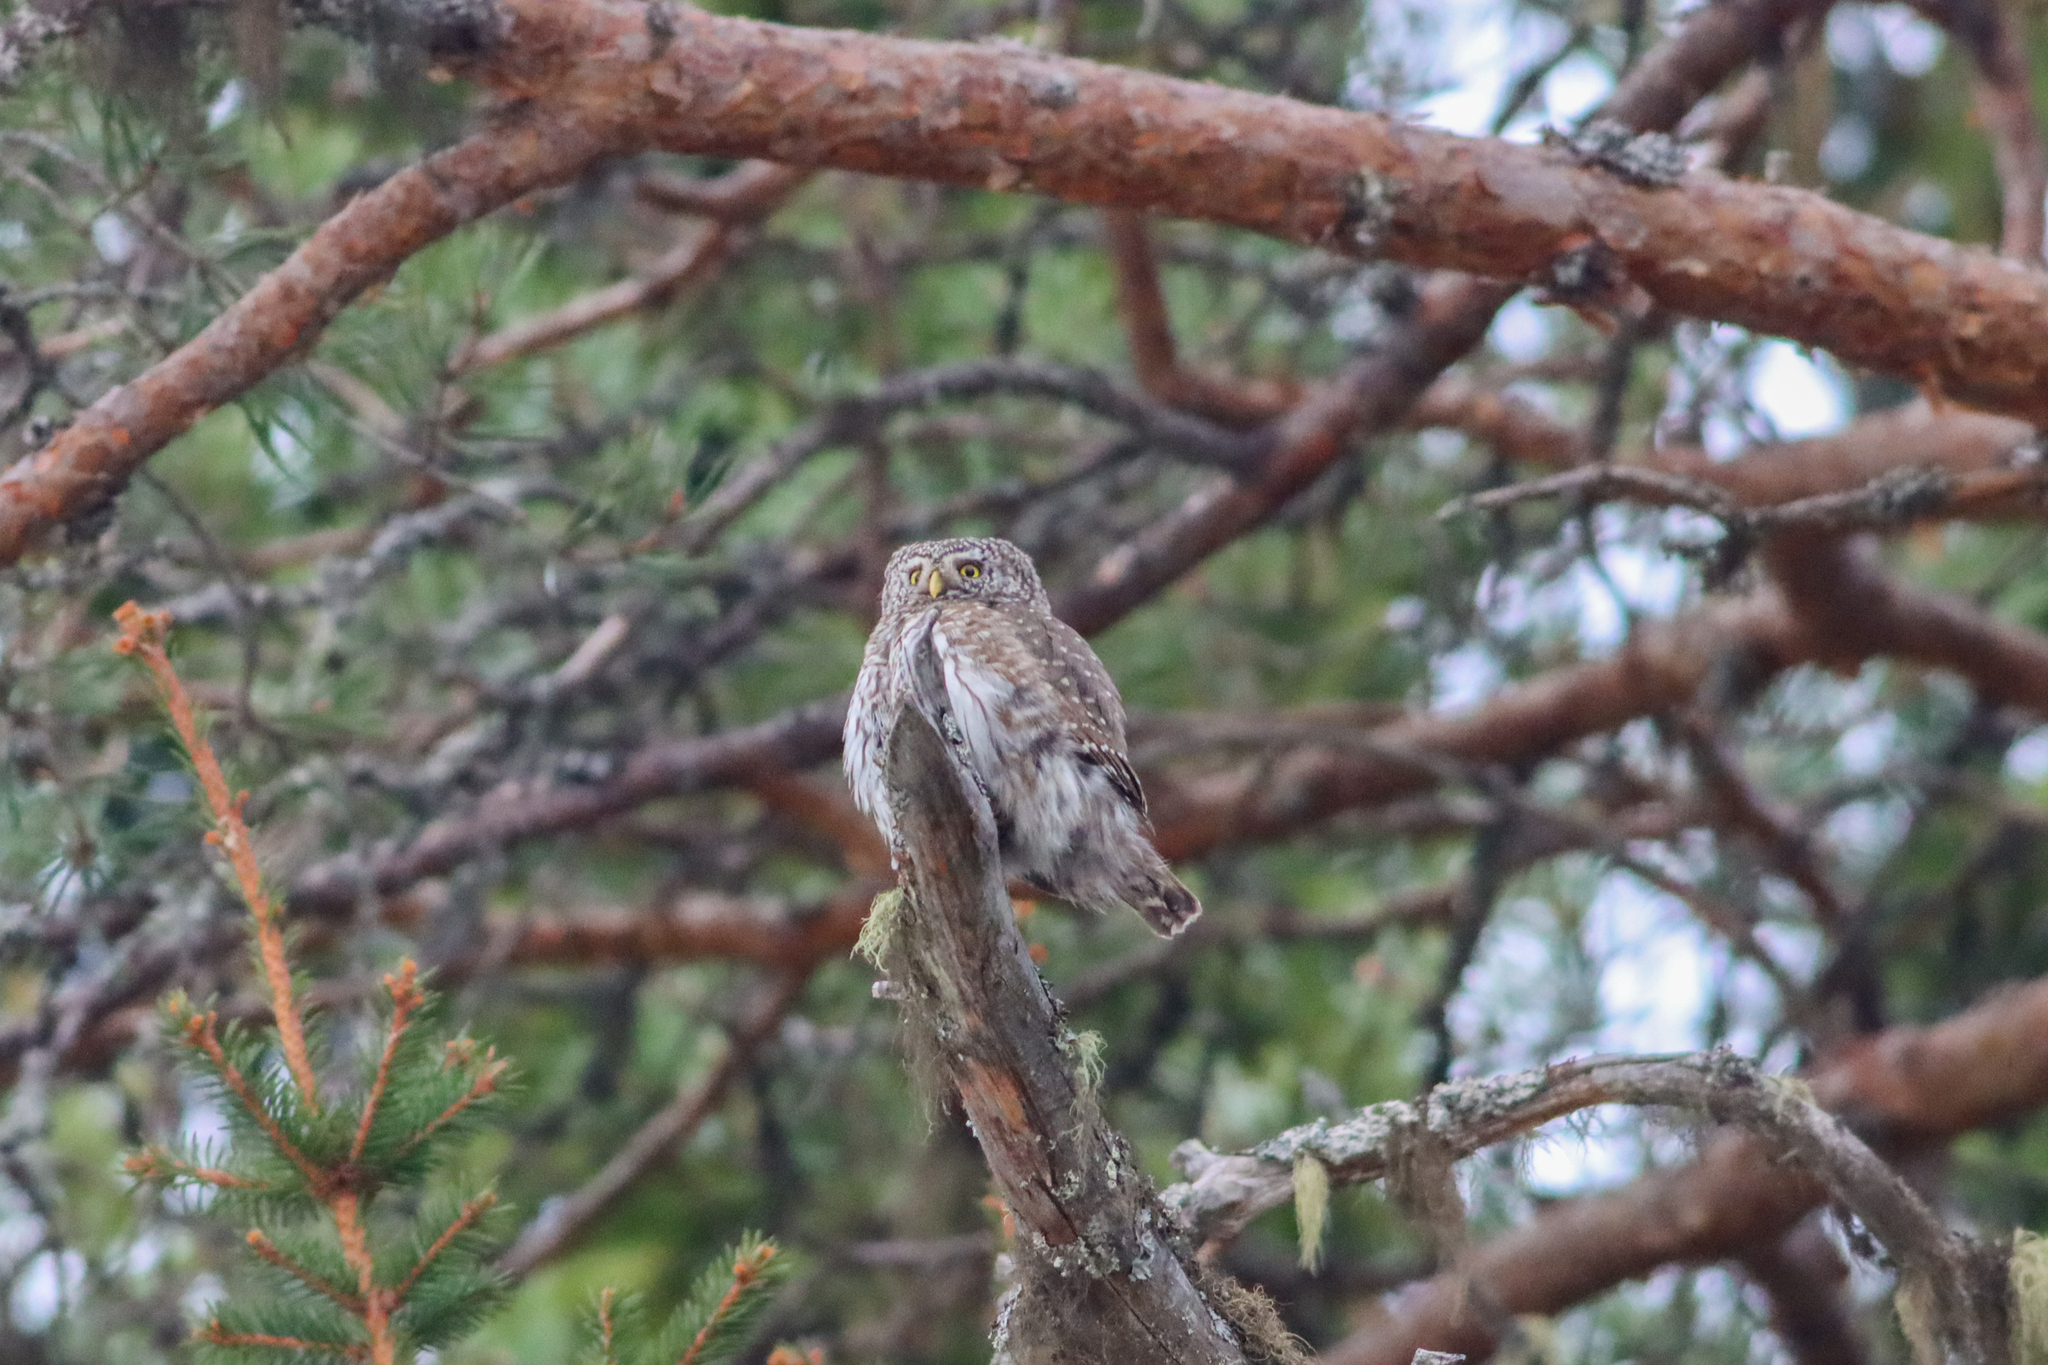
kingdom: Animalia
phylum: Chordata
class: Aves
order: Strigiformes
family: Strigidae
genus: Glaucidium
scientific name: Glaucidium passerinum
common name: Eurasian pygmy owl
